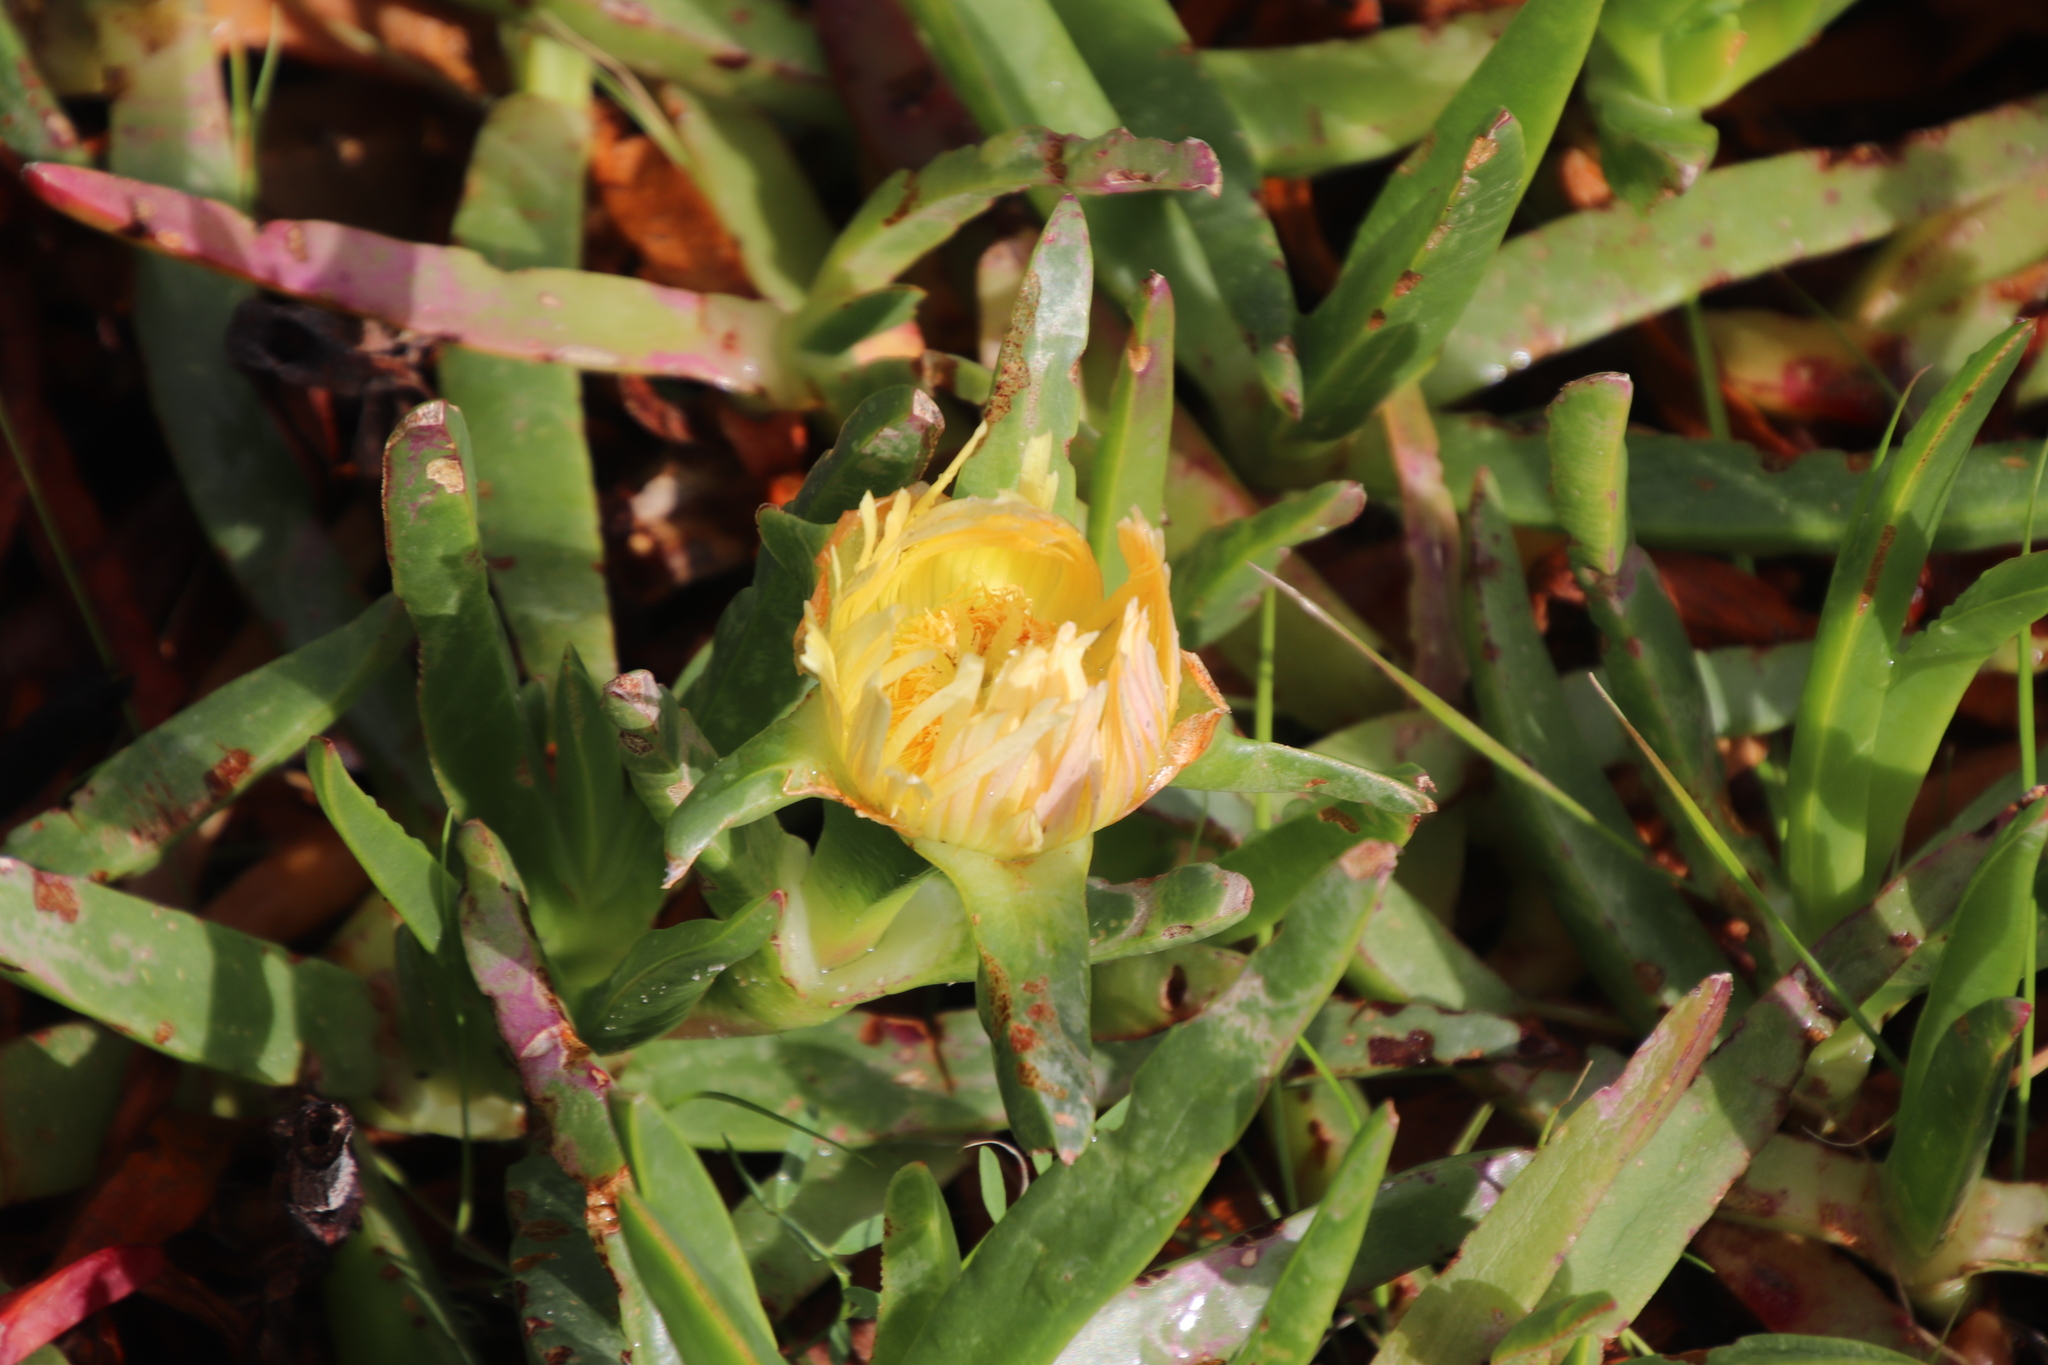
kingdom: Plantae
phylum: Tracheophyta
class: Magnoliopsida
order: Caryophyllales
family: Aizoaceae
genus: Carpobrotus
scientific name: Carpobrotus edulis
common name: Hottentot-fig
